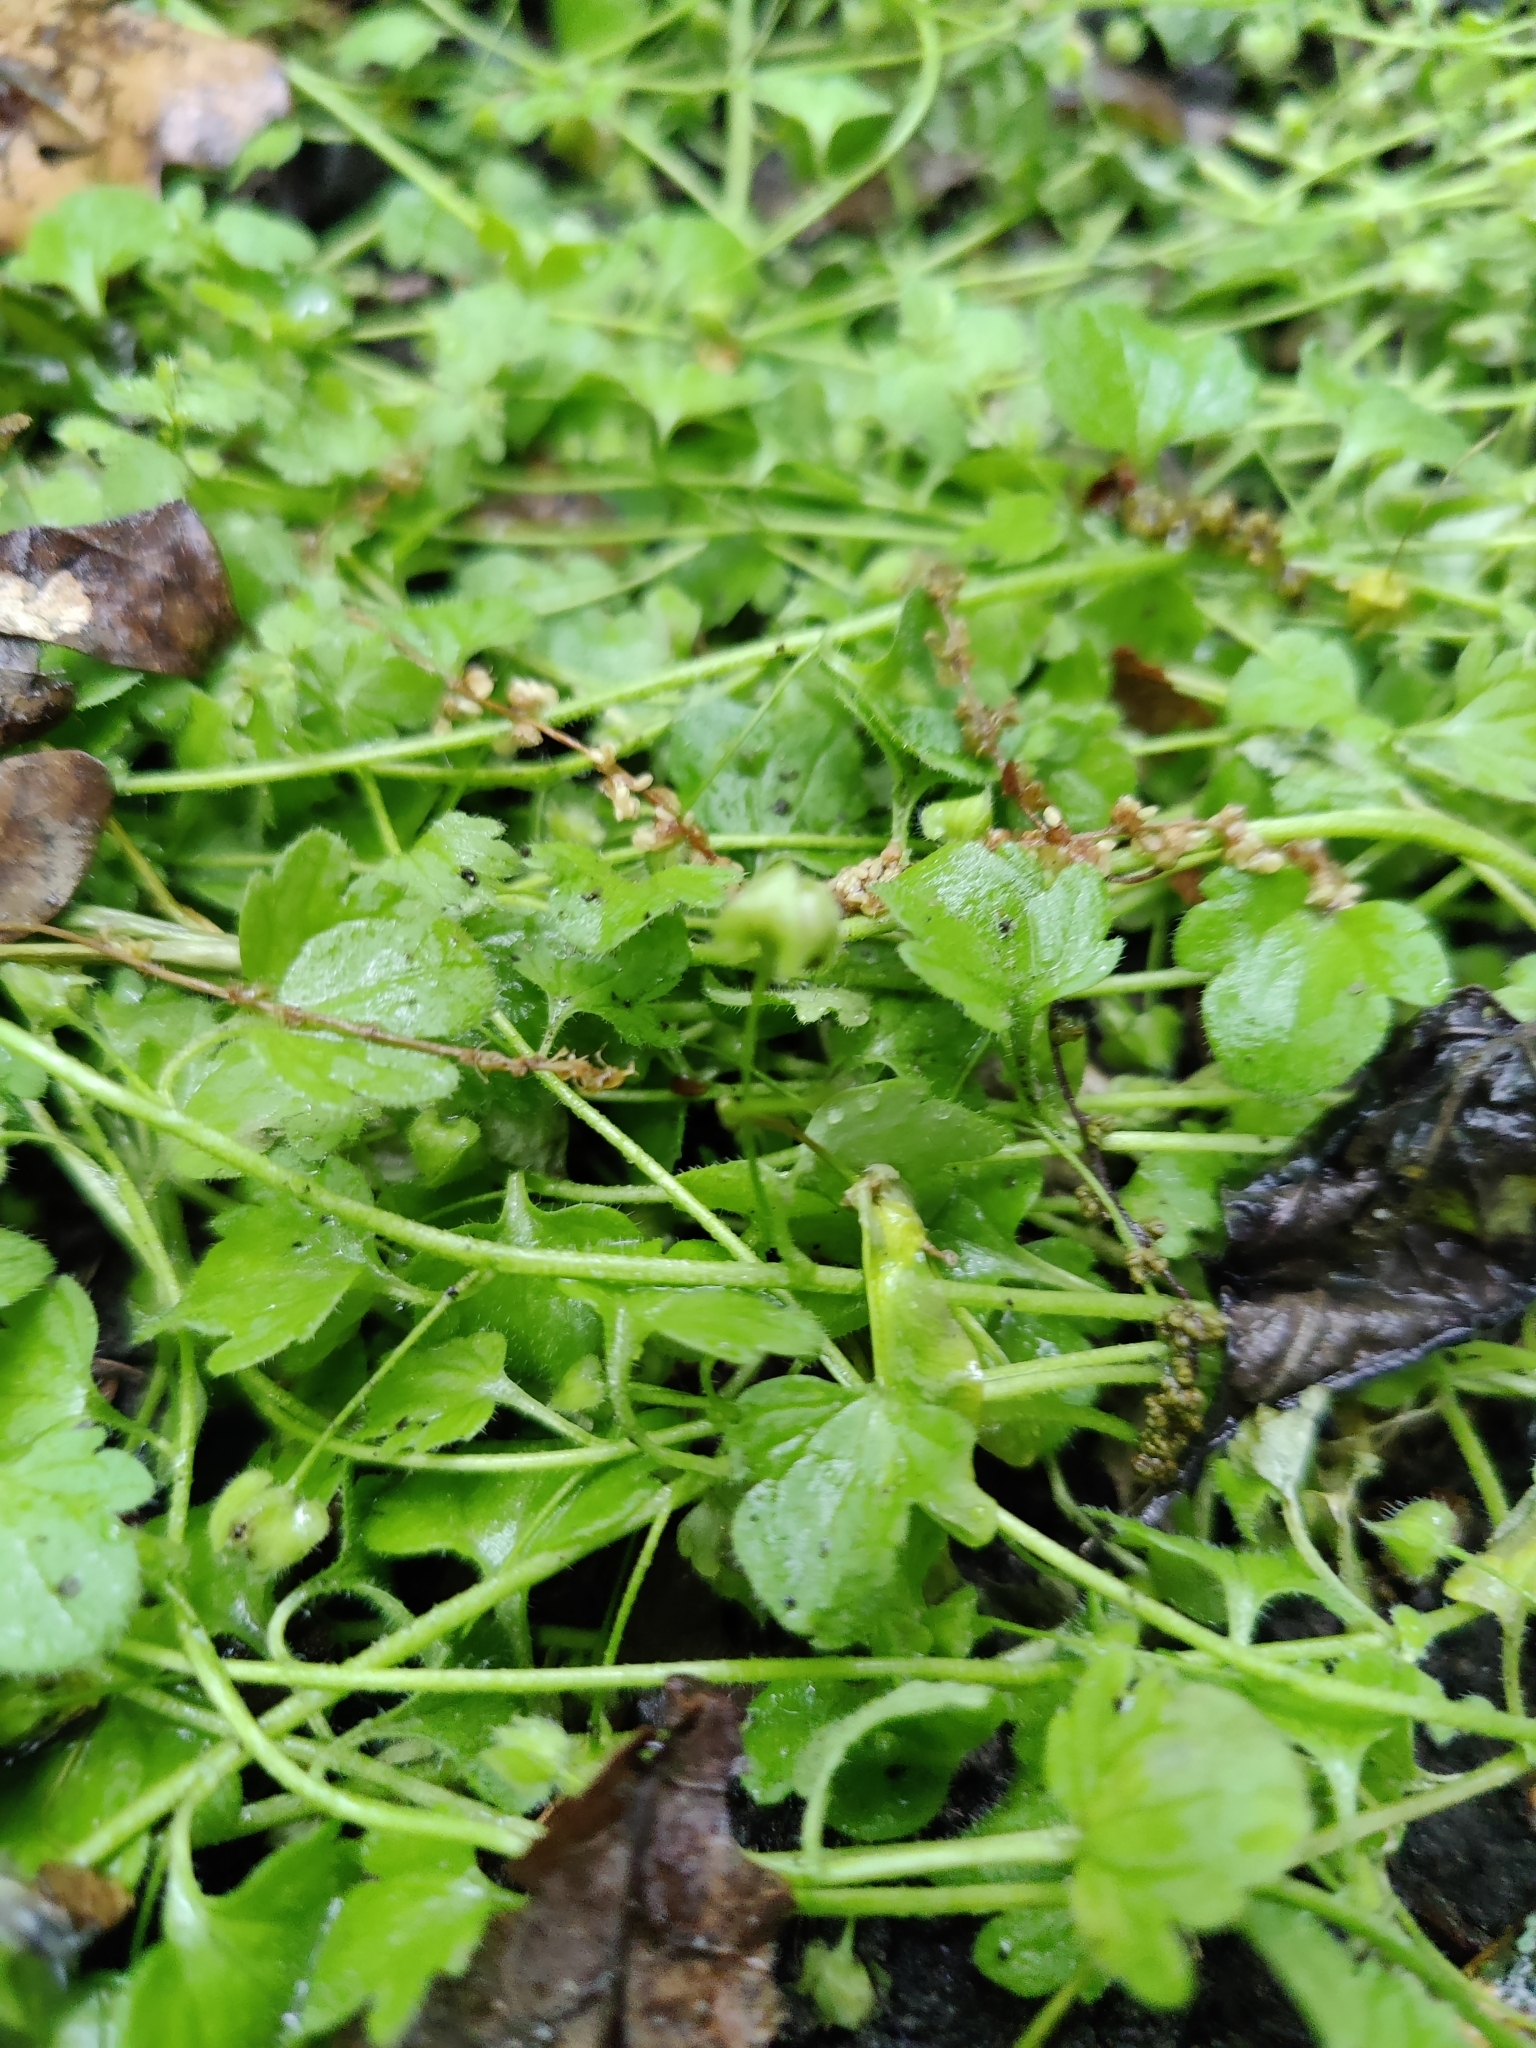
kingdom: Plantae
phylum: Tracheophyta
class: Magnoliopsida
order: Lamiales
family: Plantaginaceae
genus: Veronica
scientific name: Veronica sublobata
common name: False ivy-leaved speedwell
